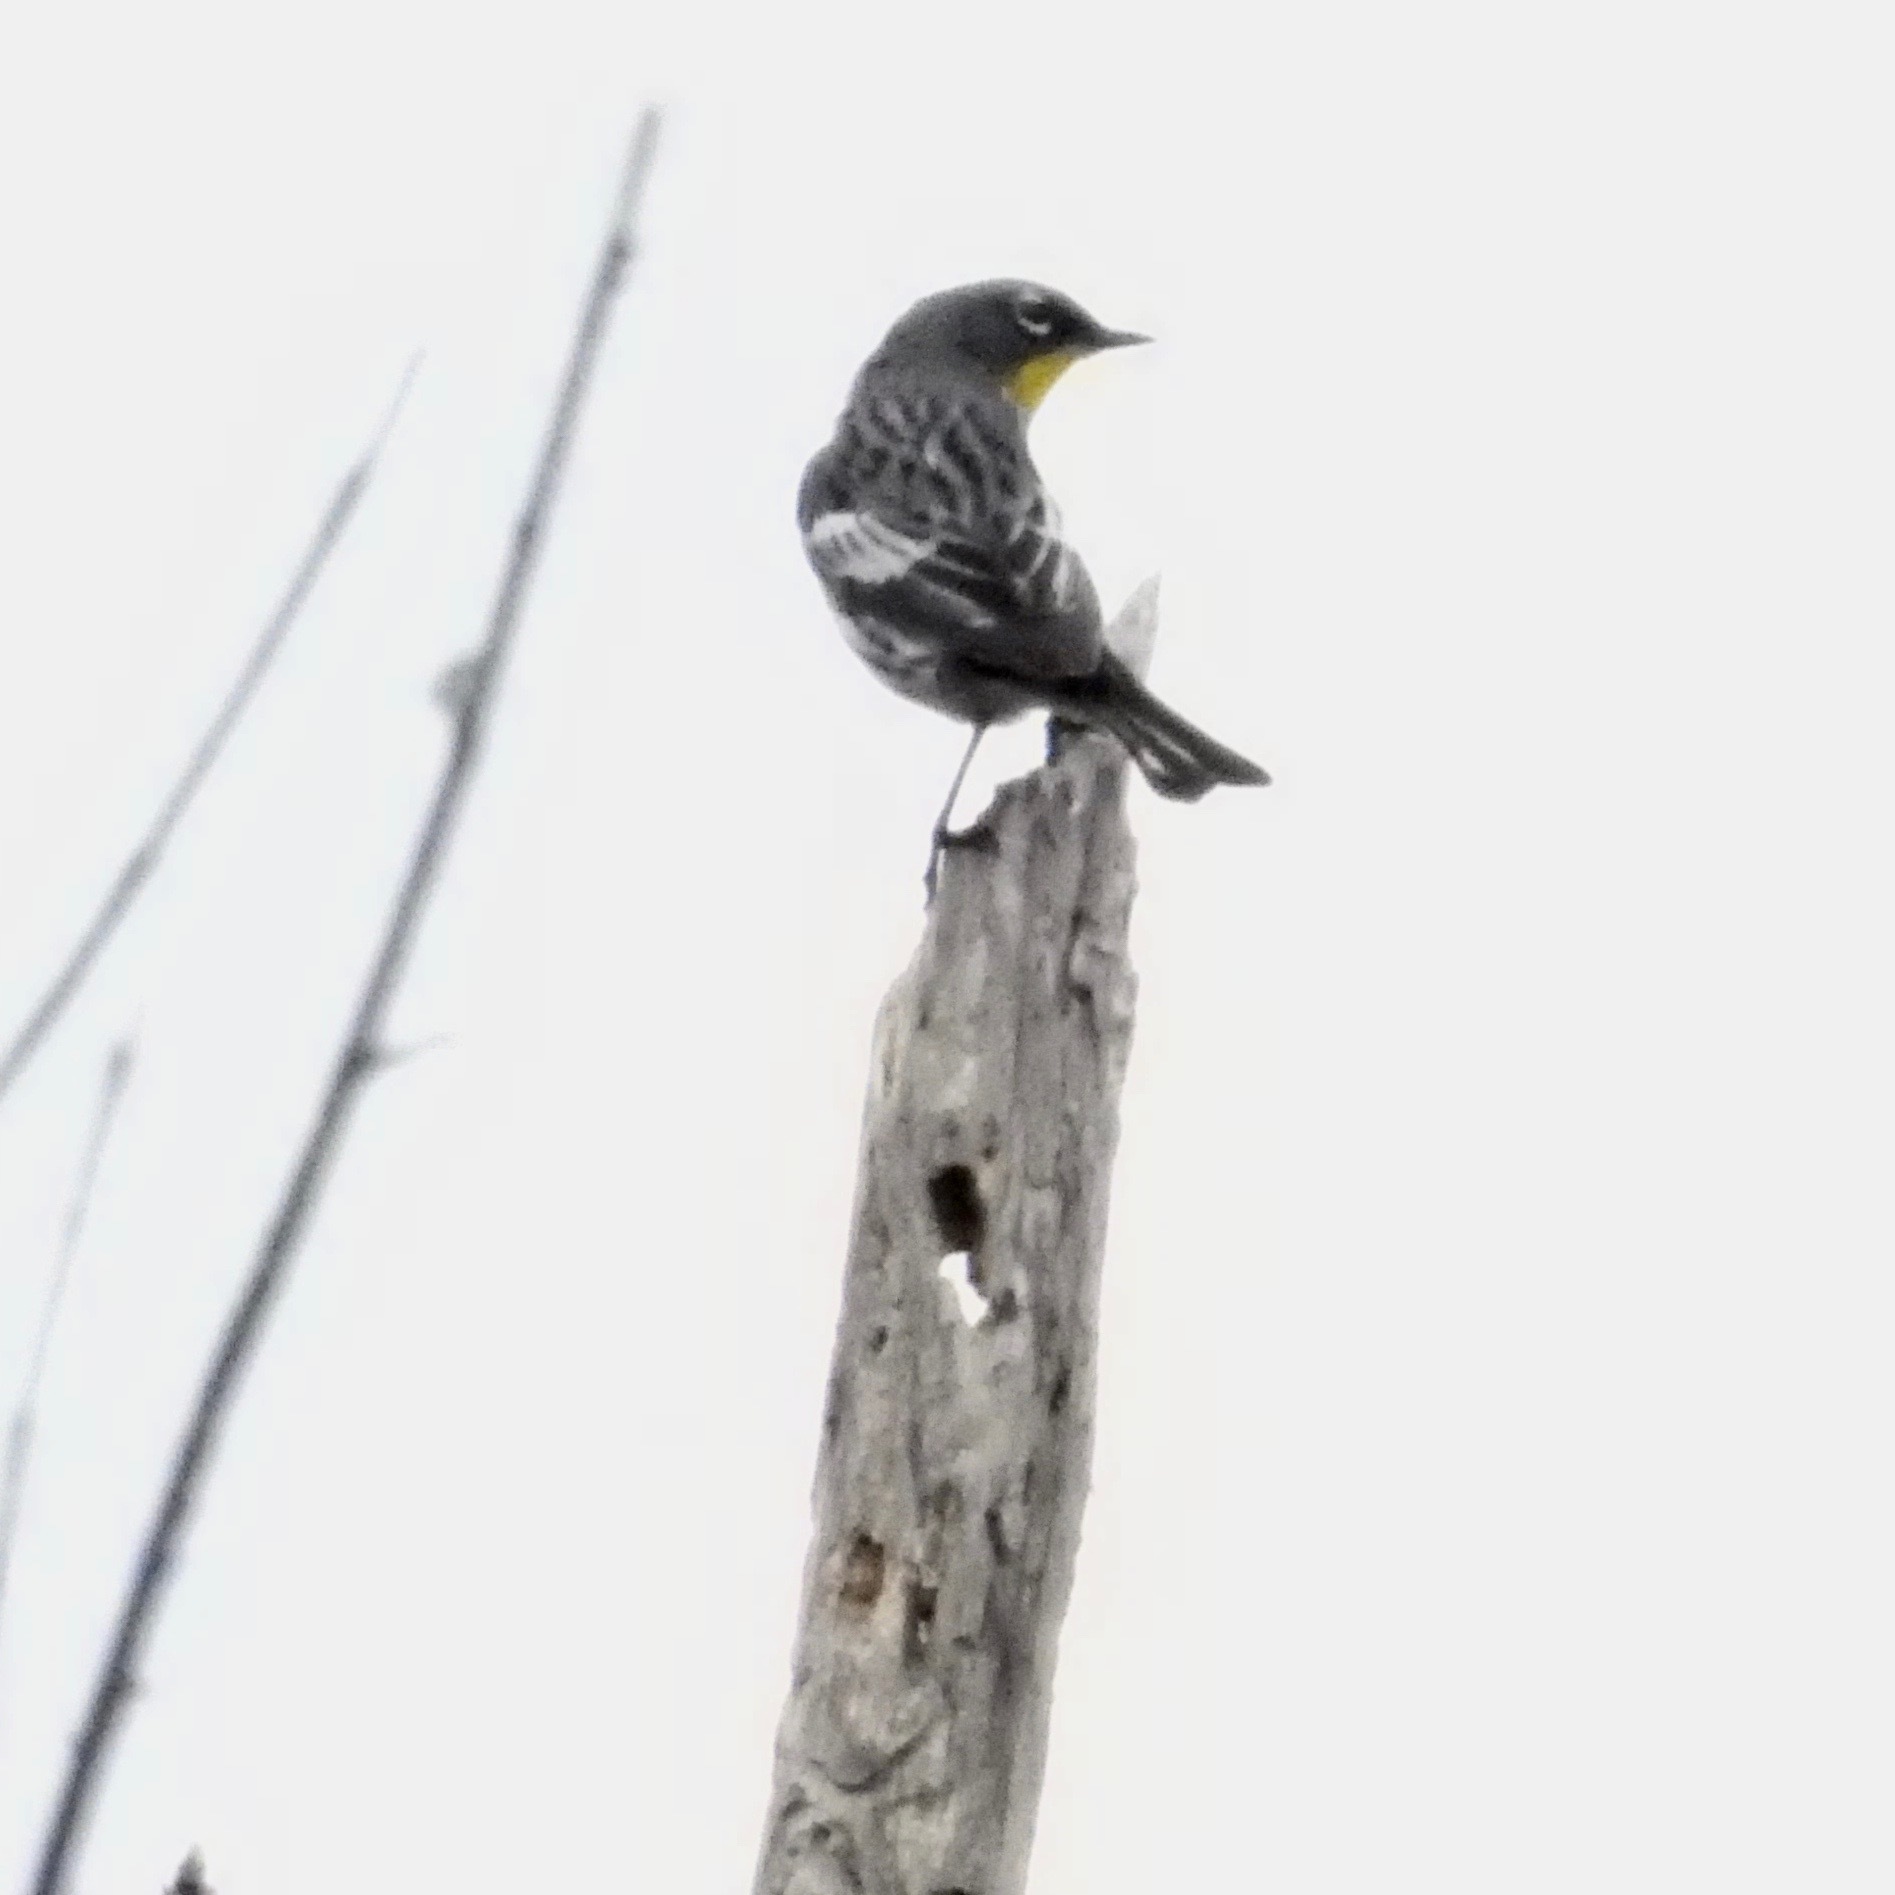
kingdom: Animalia
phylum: Chordata
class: Aves
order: Passeriformes
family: Parulidae
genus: Setophaga
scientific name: Setophaga coronata
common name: Myrtle warbler
